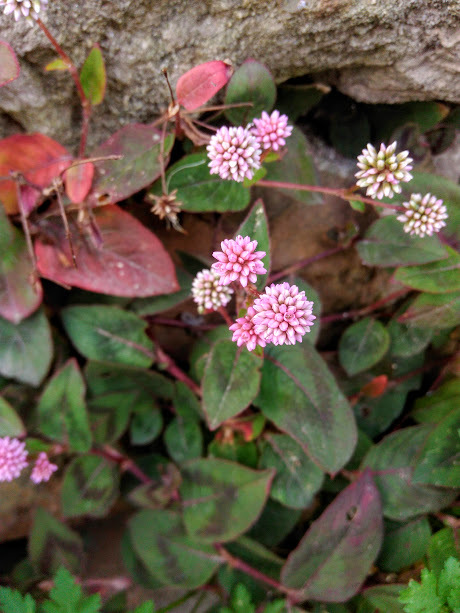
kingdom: Plantae
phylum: Tracheophyta
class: Magnoliopsida
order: Caryophyllales
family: Polygonaceae
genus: Persicaria
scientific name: Persicaria capitata
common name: Pinkhead smartweed
